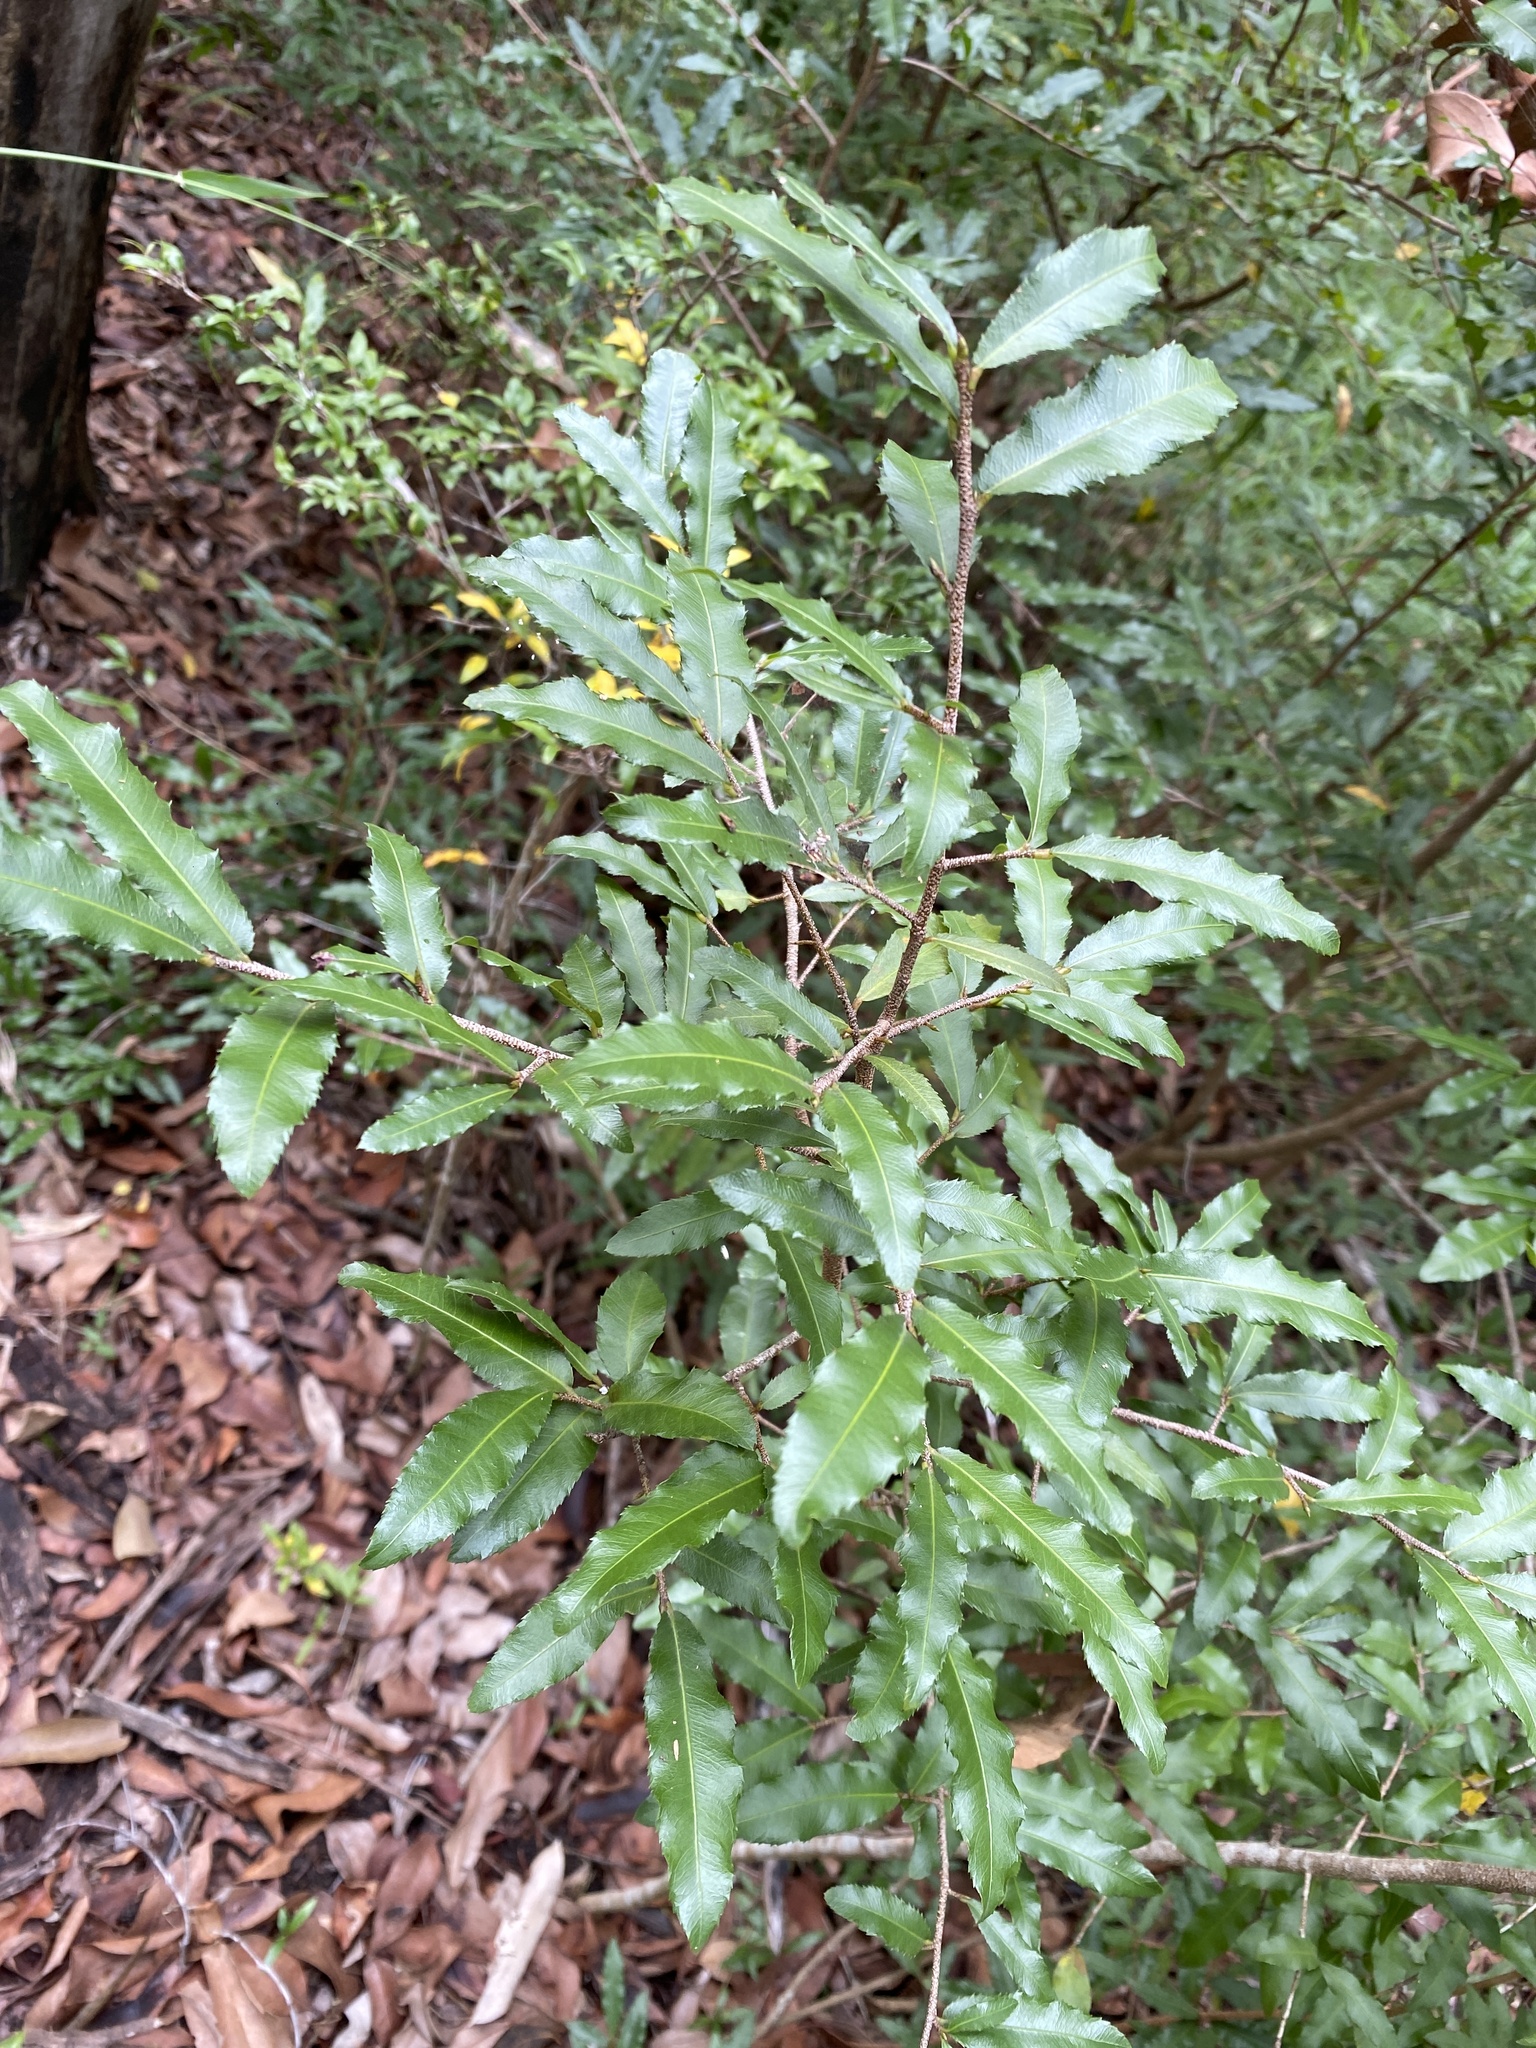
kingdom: Plantae
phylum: Tracheophyta
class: Magnoliopsida
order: Malpighiales
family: Ochnaceae
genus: Ochna
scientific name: Ochna serrulata
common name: Mickey mouse plant
